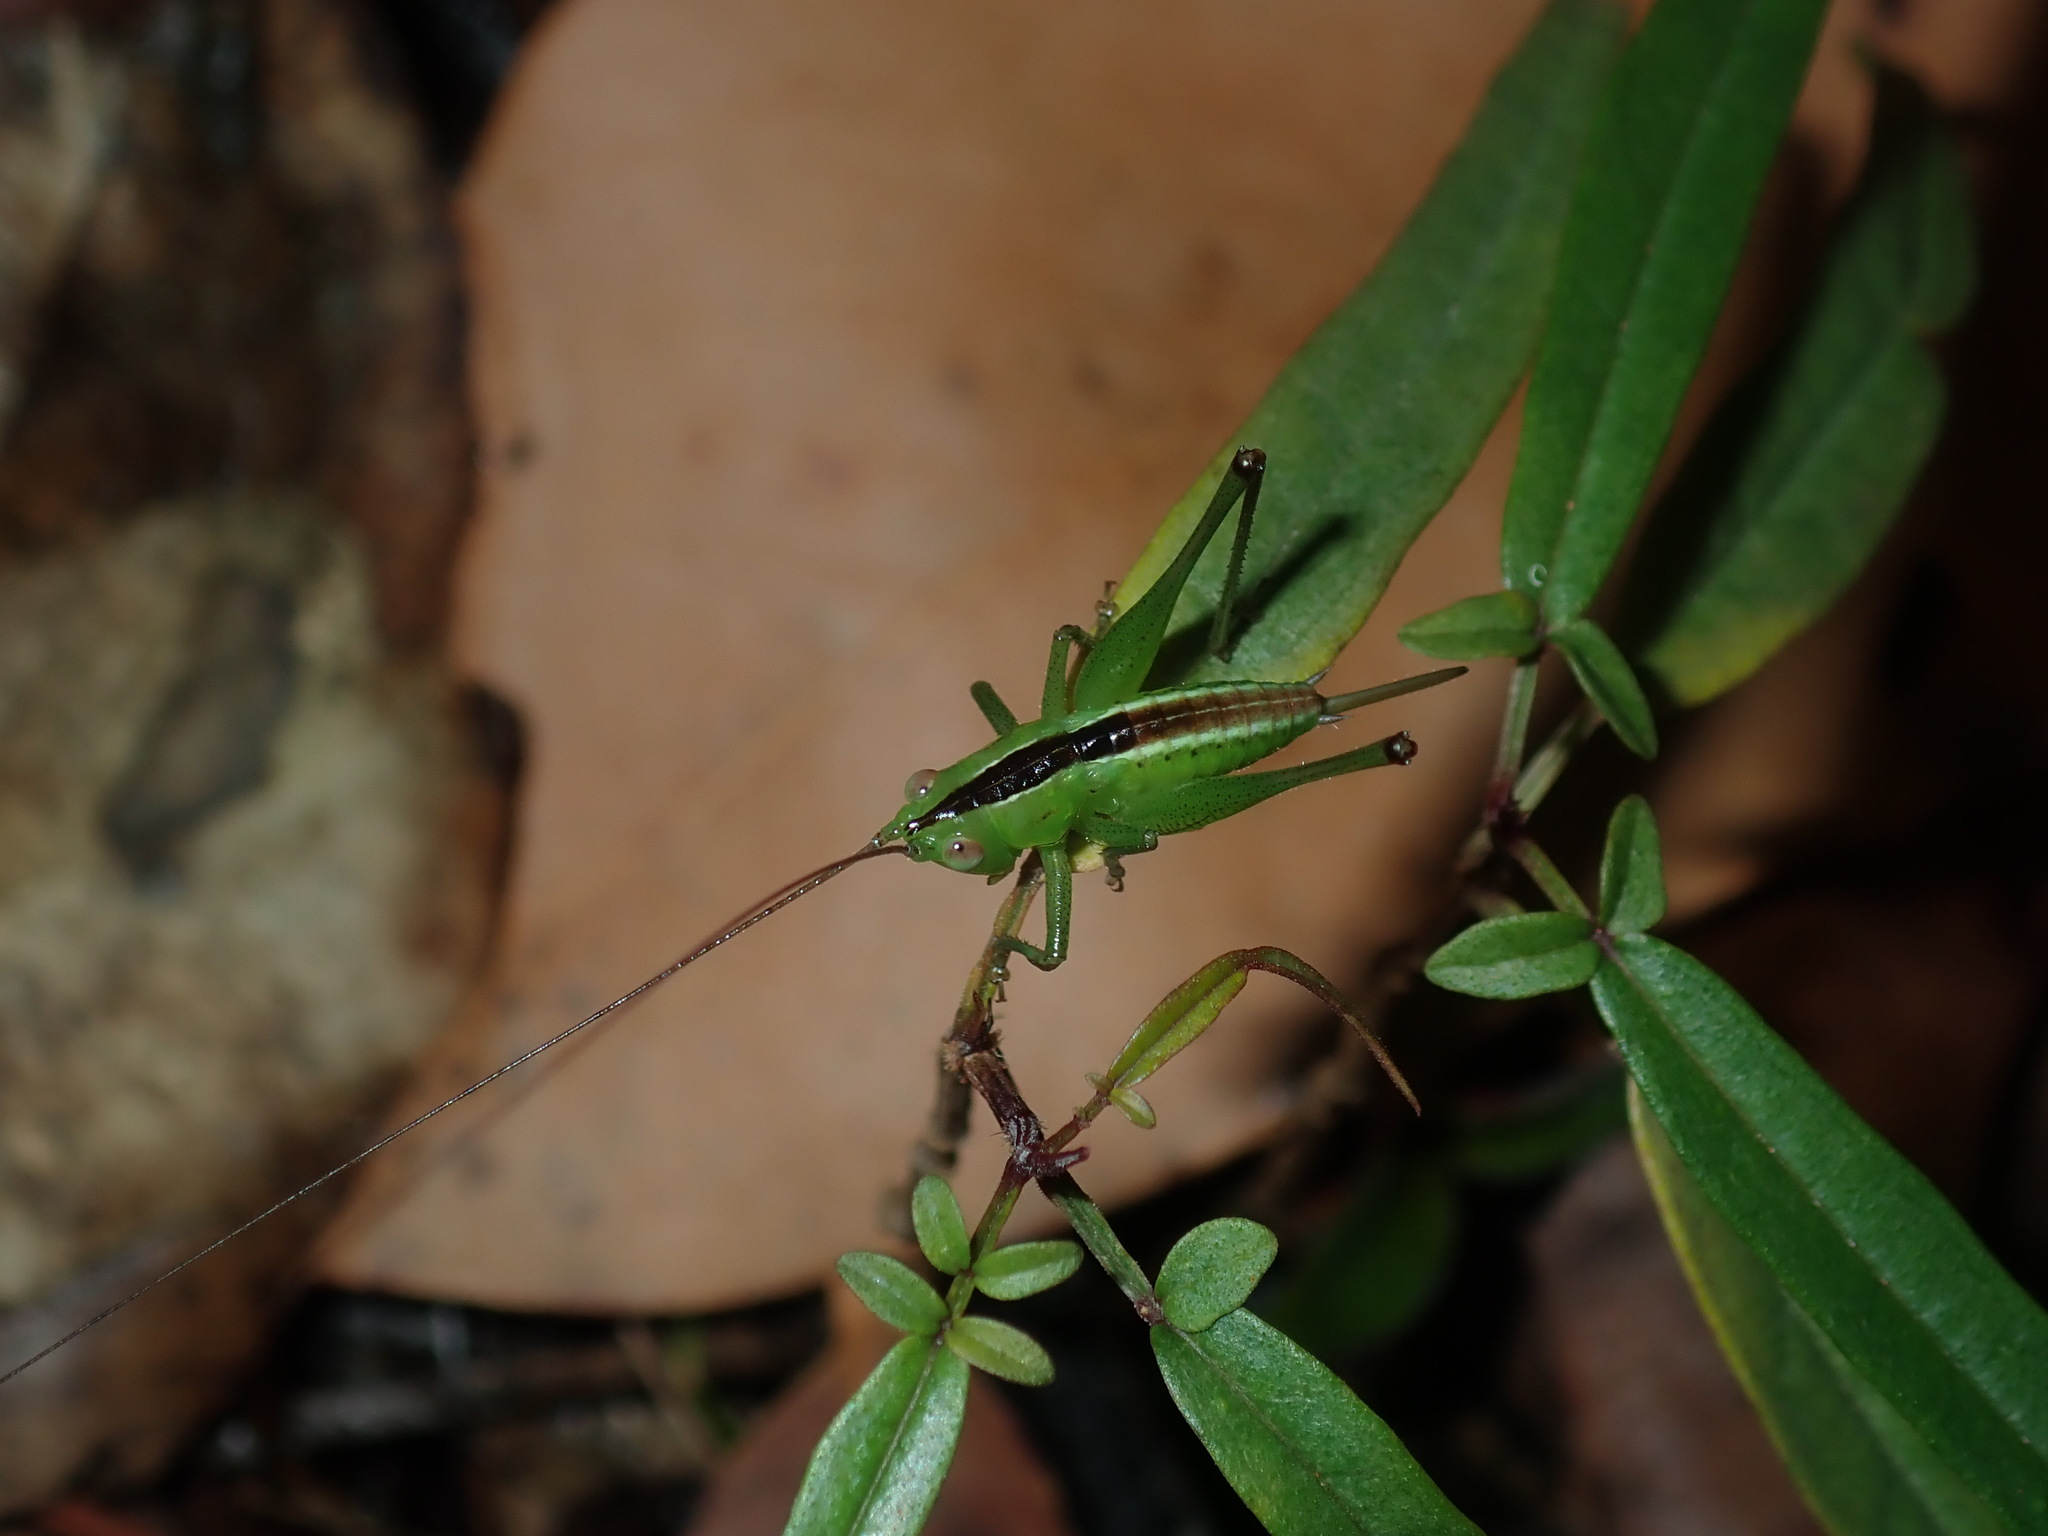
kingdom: Animalia
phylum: Arthropoda
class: Insecta
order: Orthoptera
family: Tettigoniidae
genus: Conocephalus
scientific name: Conocephalus semivittatus
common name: Blackish meadow katydid
